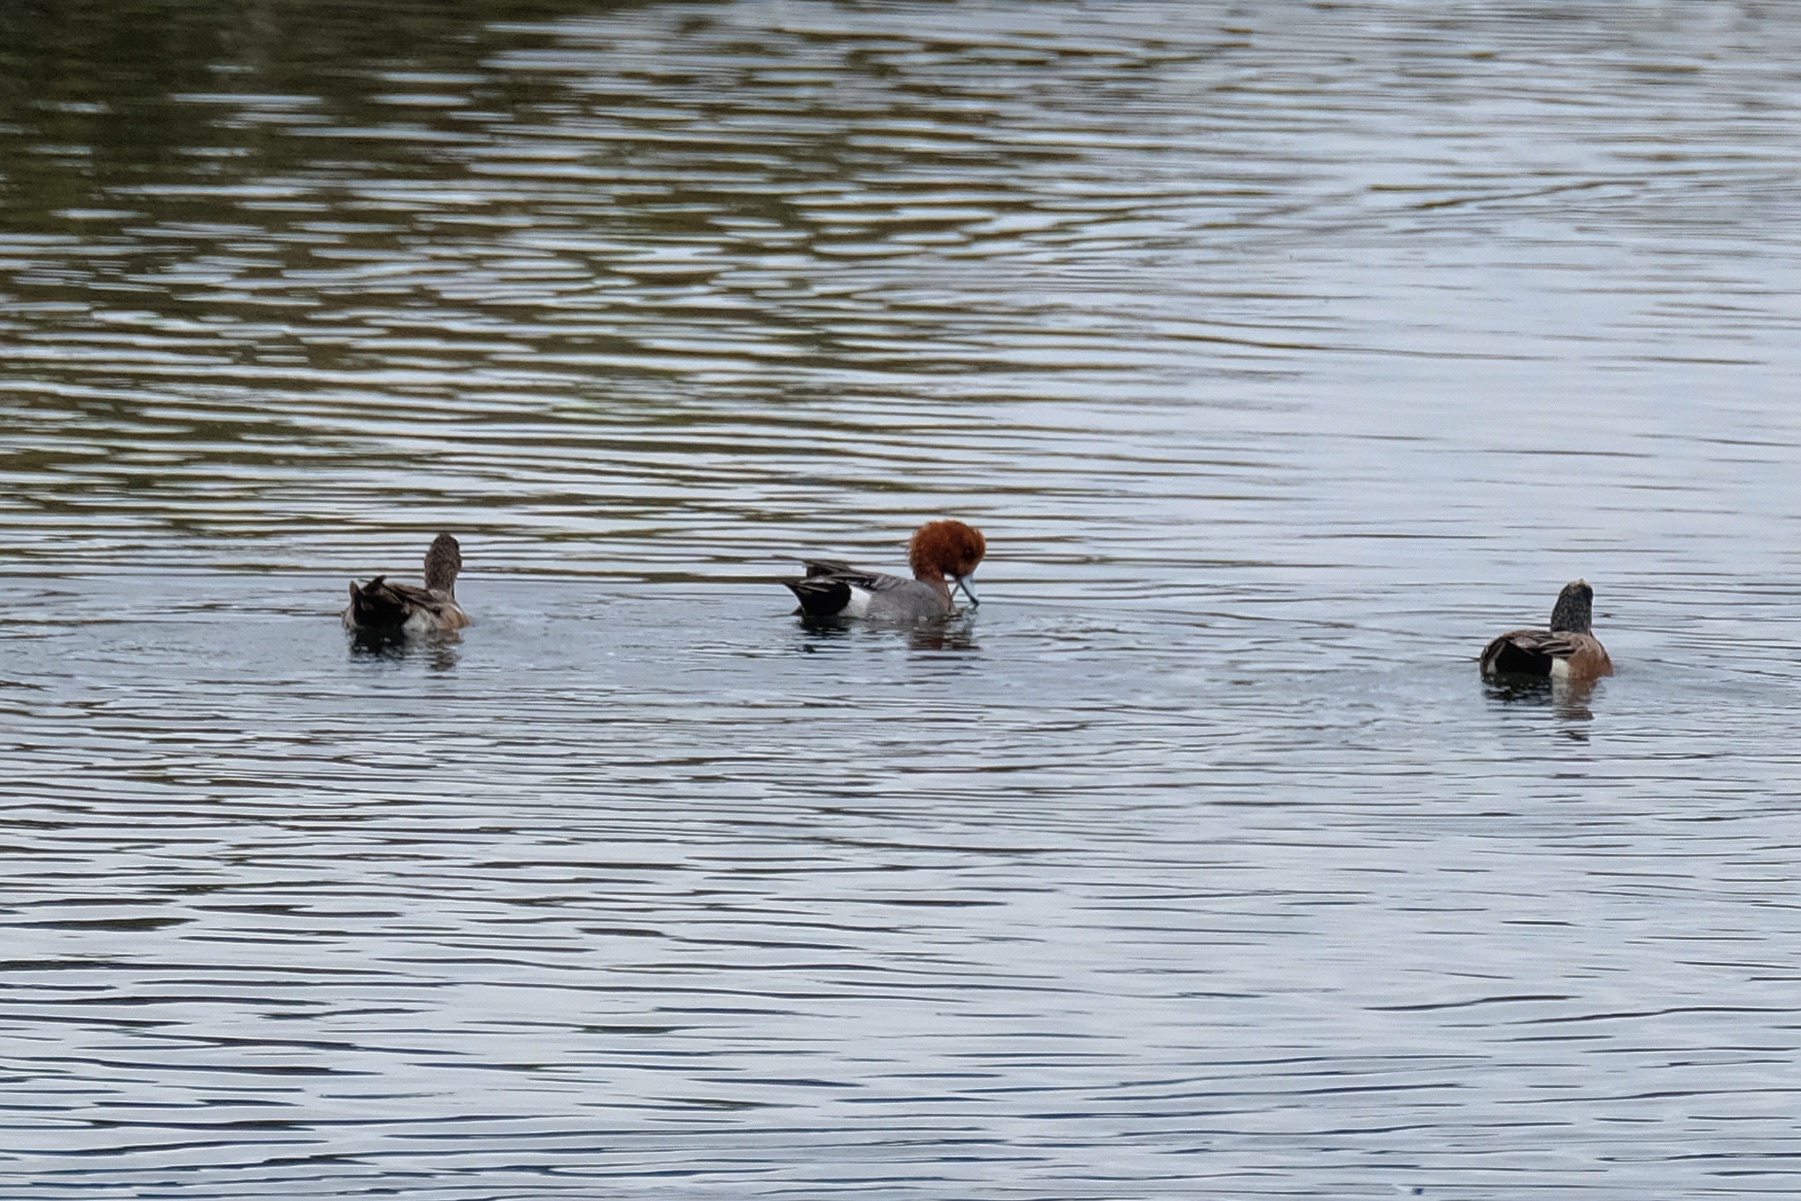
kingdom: Animalia
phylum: Chordata
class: Aves
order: Anseriformes
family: Anatidae
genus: Mareca
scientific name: Mareca penelope
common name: Eurasian wigeon
